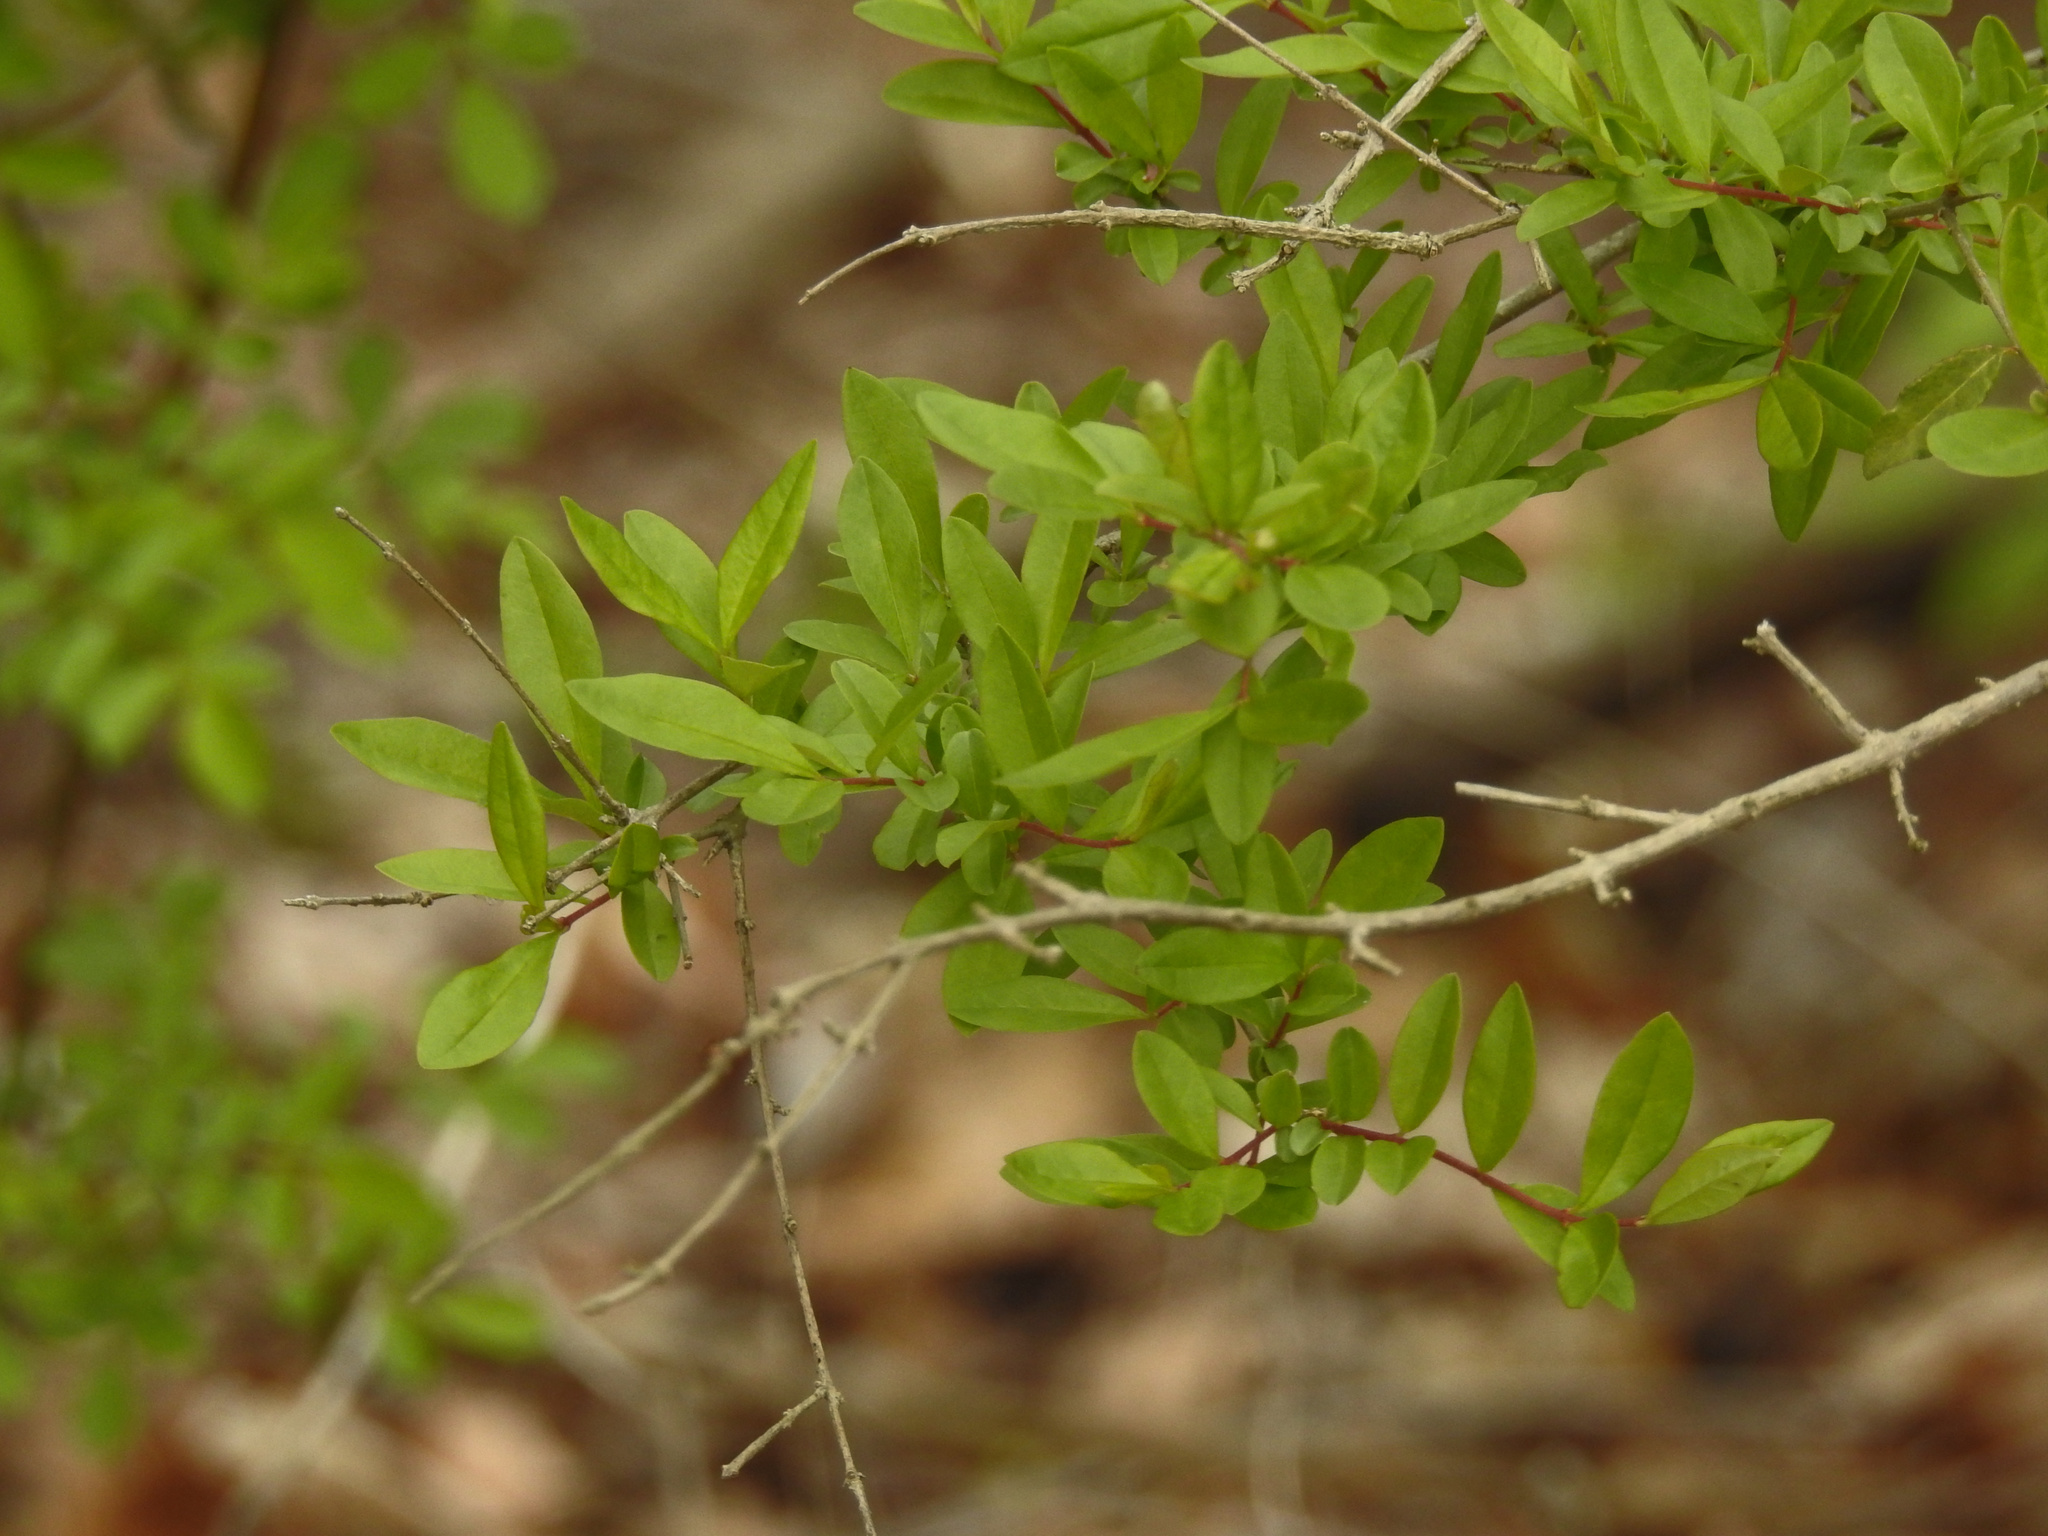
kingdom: Plantae
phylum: Tracheophyta
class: Magnoliopsida
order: Lamiales
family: Oleaceae
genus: Ligustrum
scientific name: Ligustrum obtusifolium
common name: Border privet
